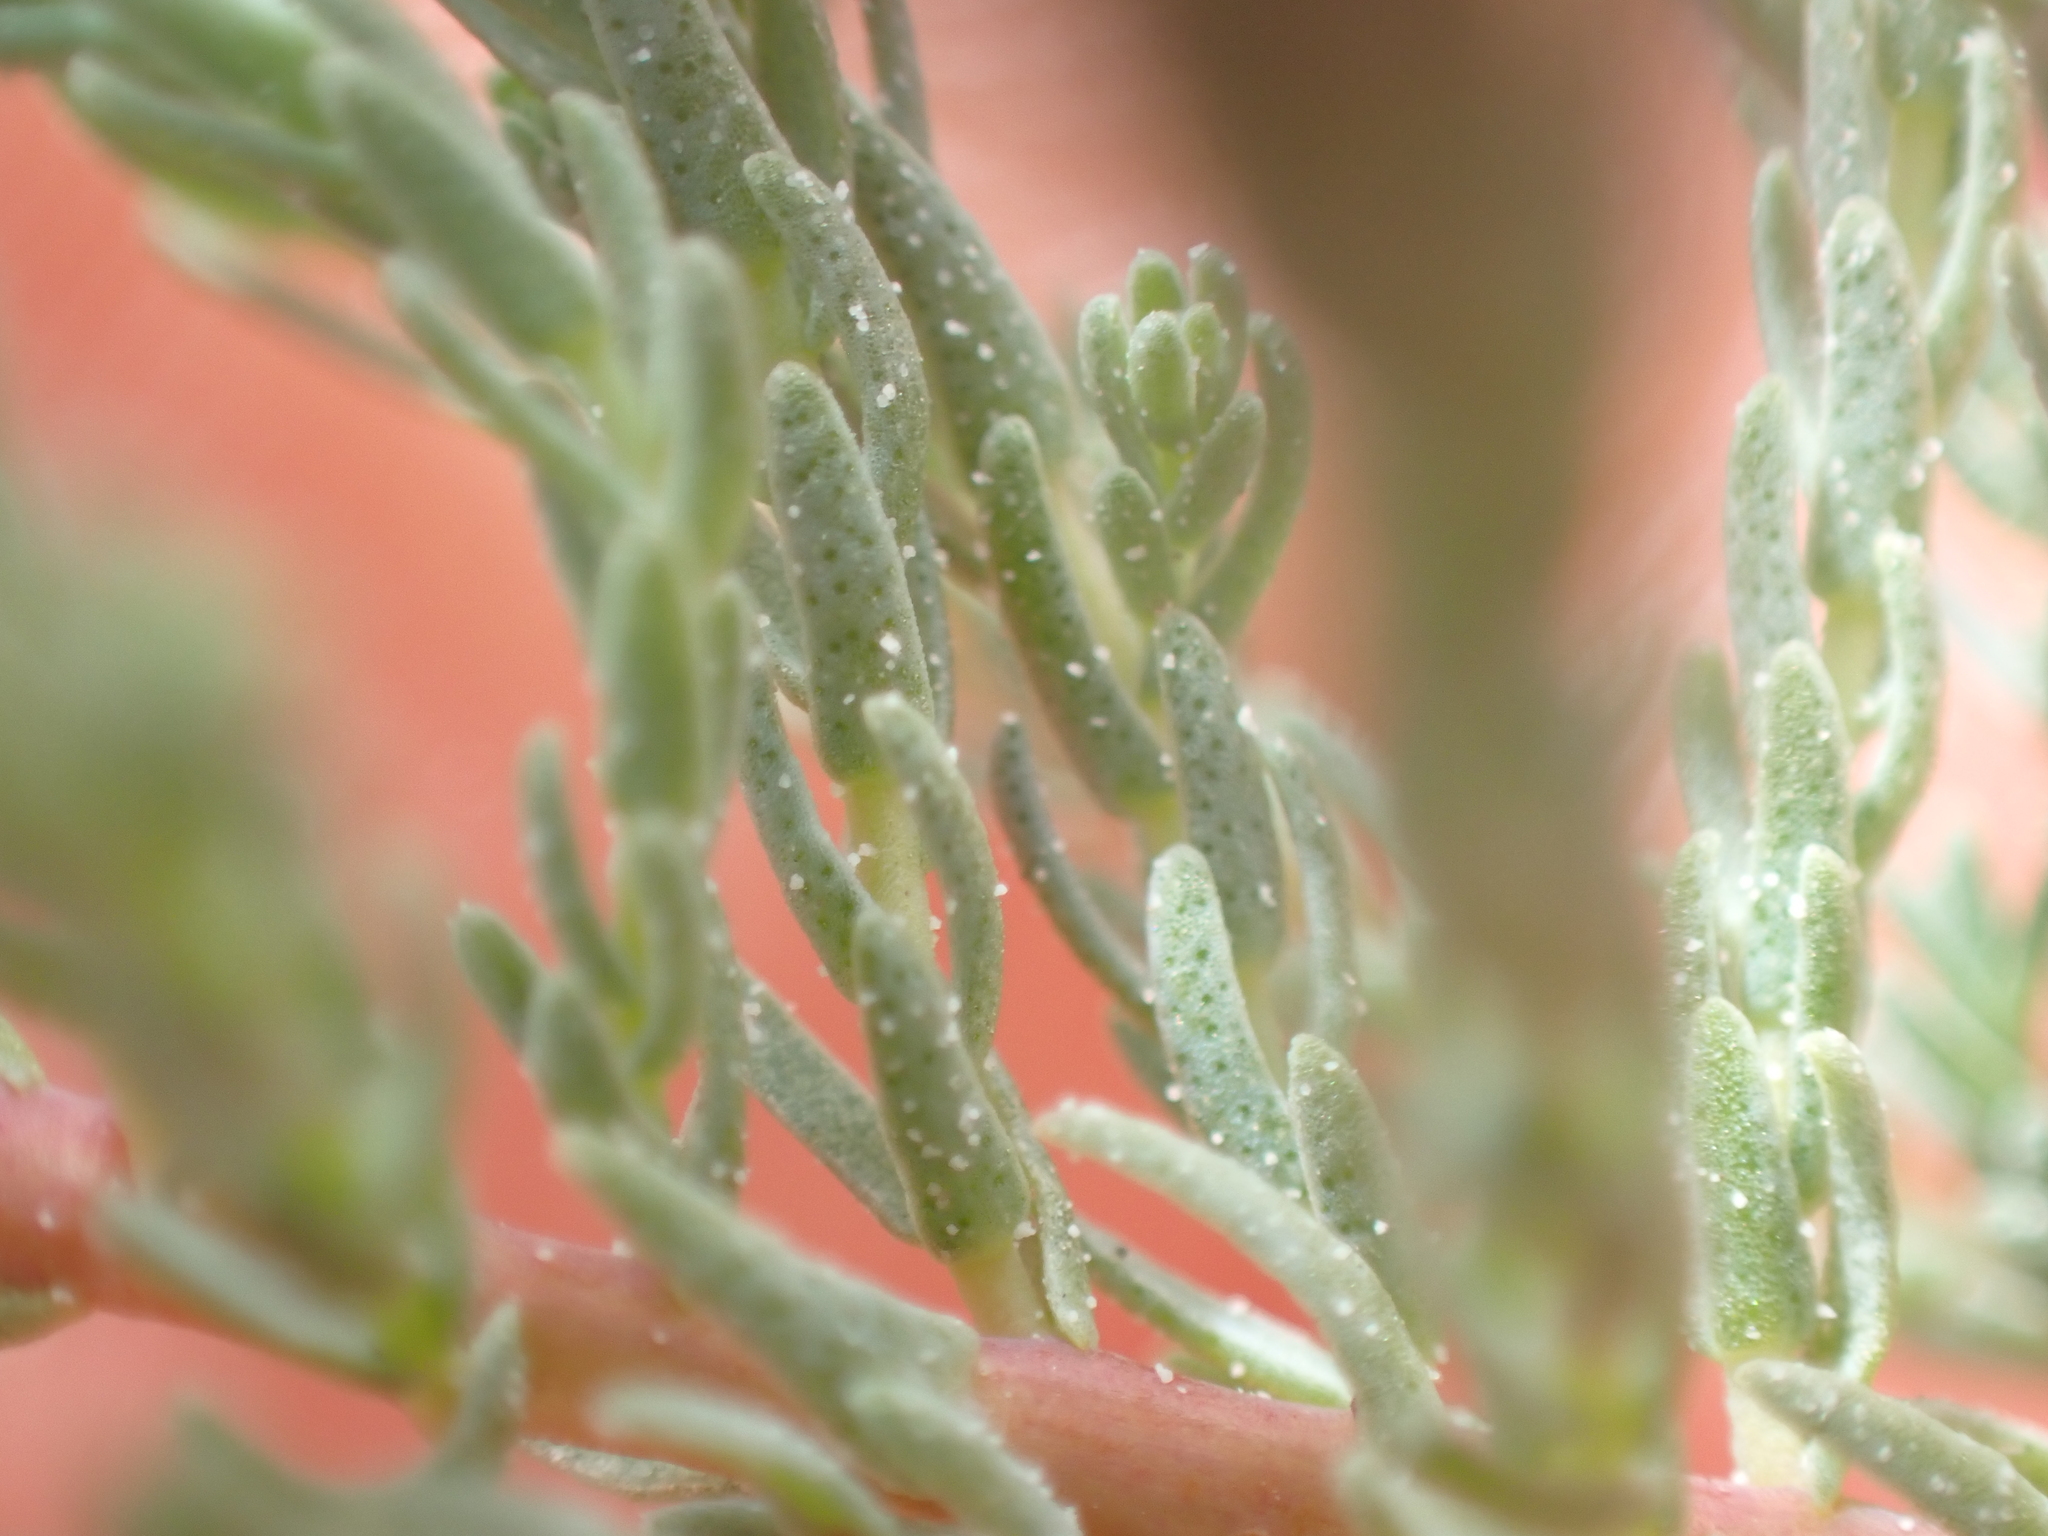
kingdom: Plantae
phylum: Tracheophyta
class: Magnoliopsida
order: Caryophyllales
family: Tamaricaceae
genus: Myricaria
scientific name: Myricaria germanica
